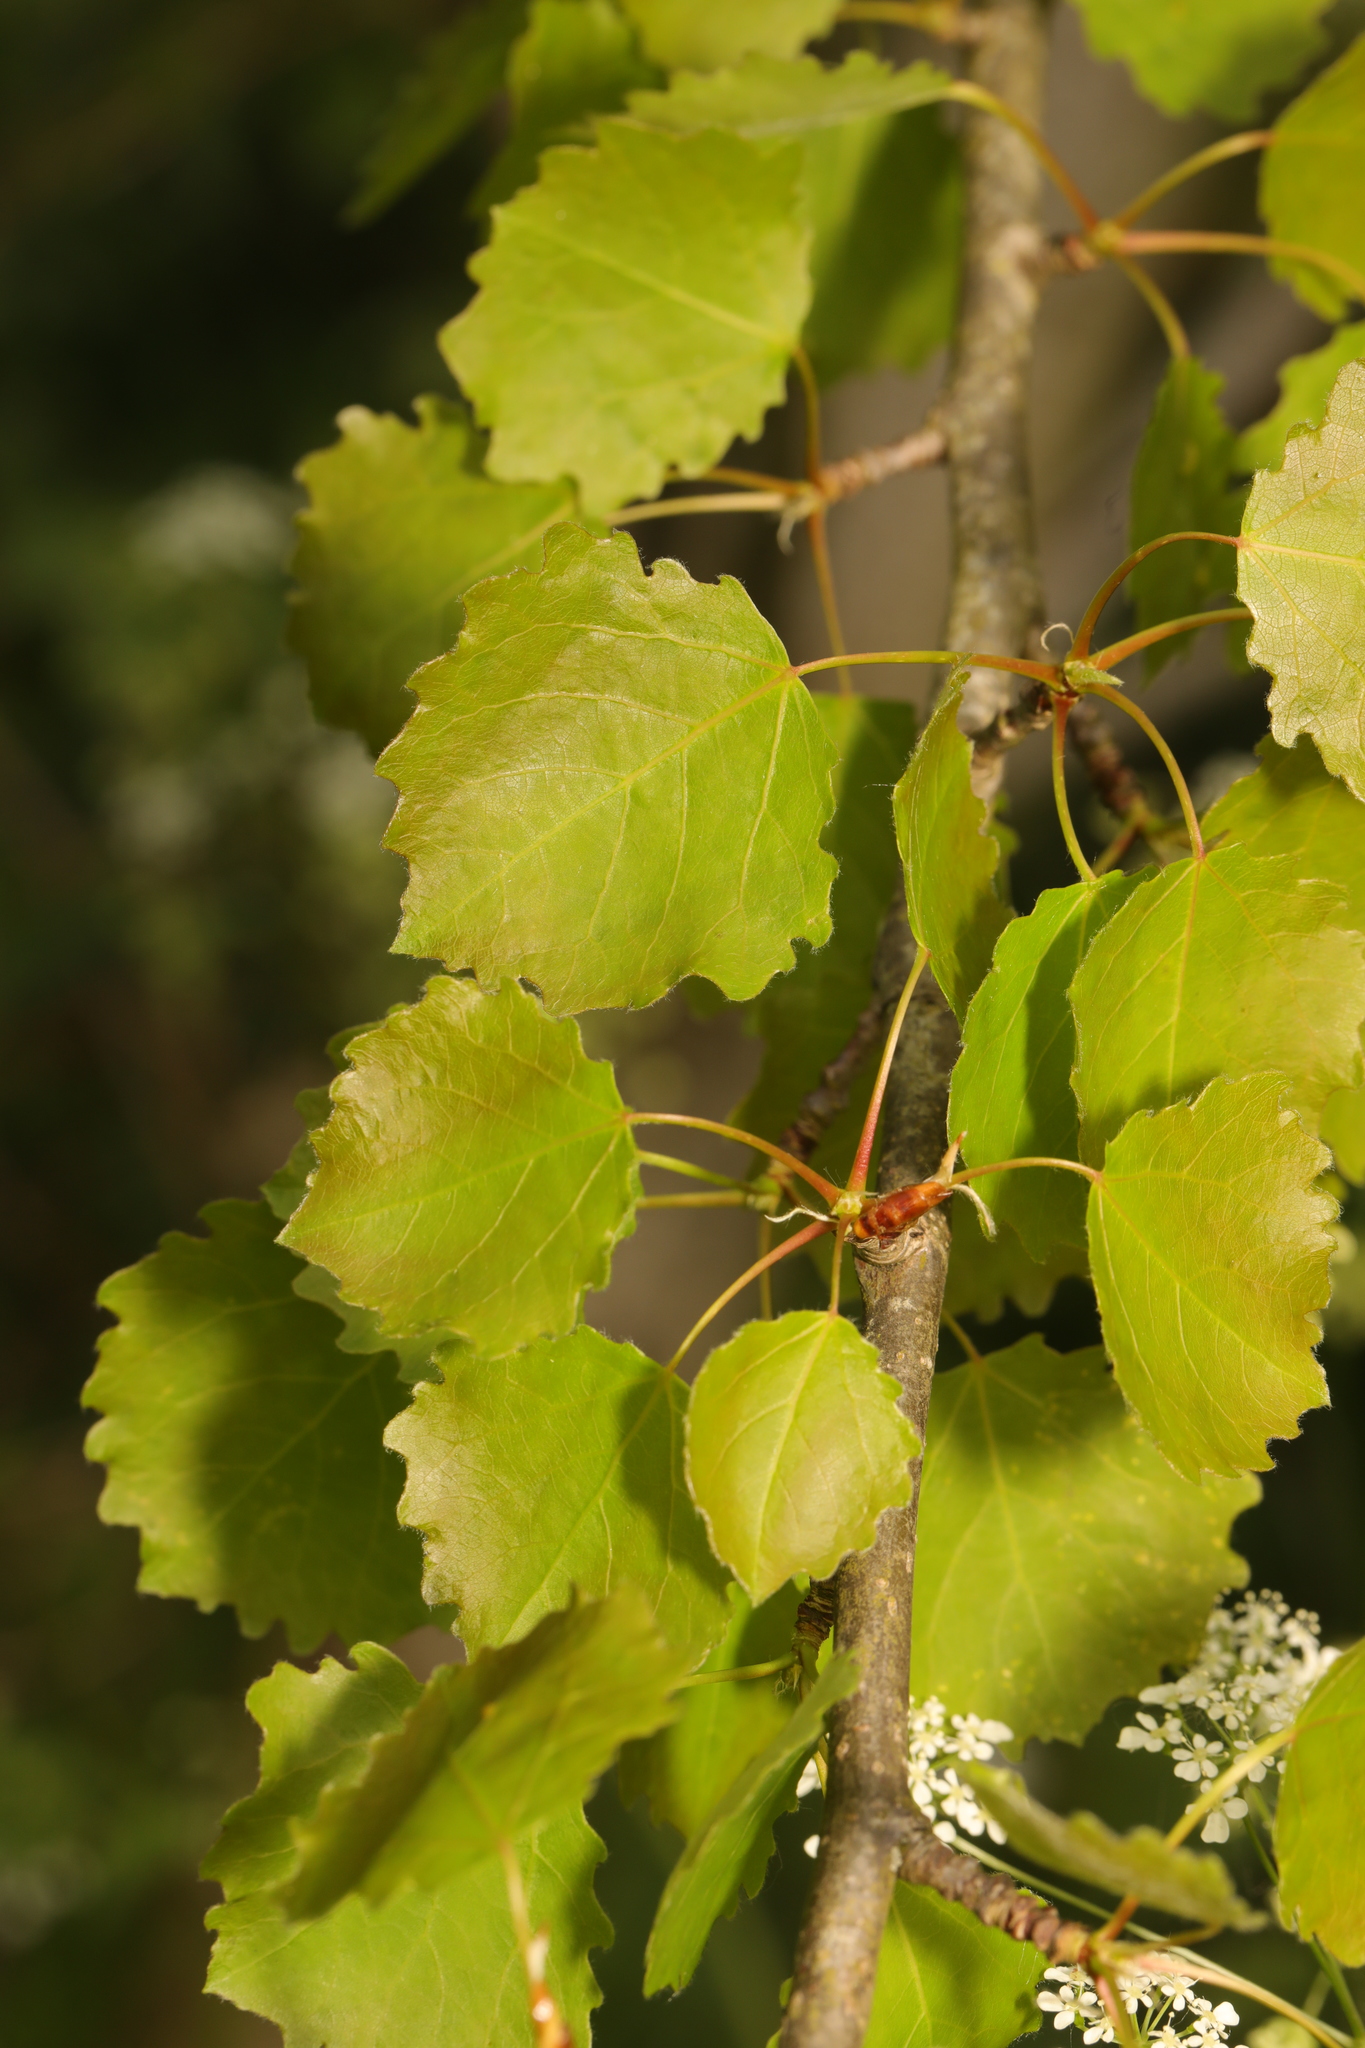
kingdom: Plantae
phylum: Tracheophyta
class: Magnoliopsida
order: Malpighiales
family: Salicaceae
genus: Populus
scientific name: Populus tremula
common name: European aspen
